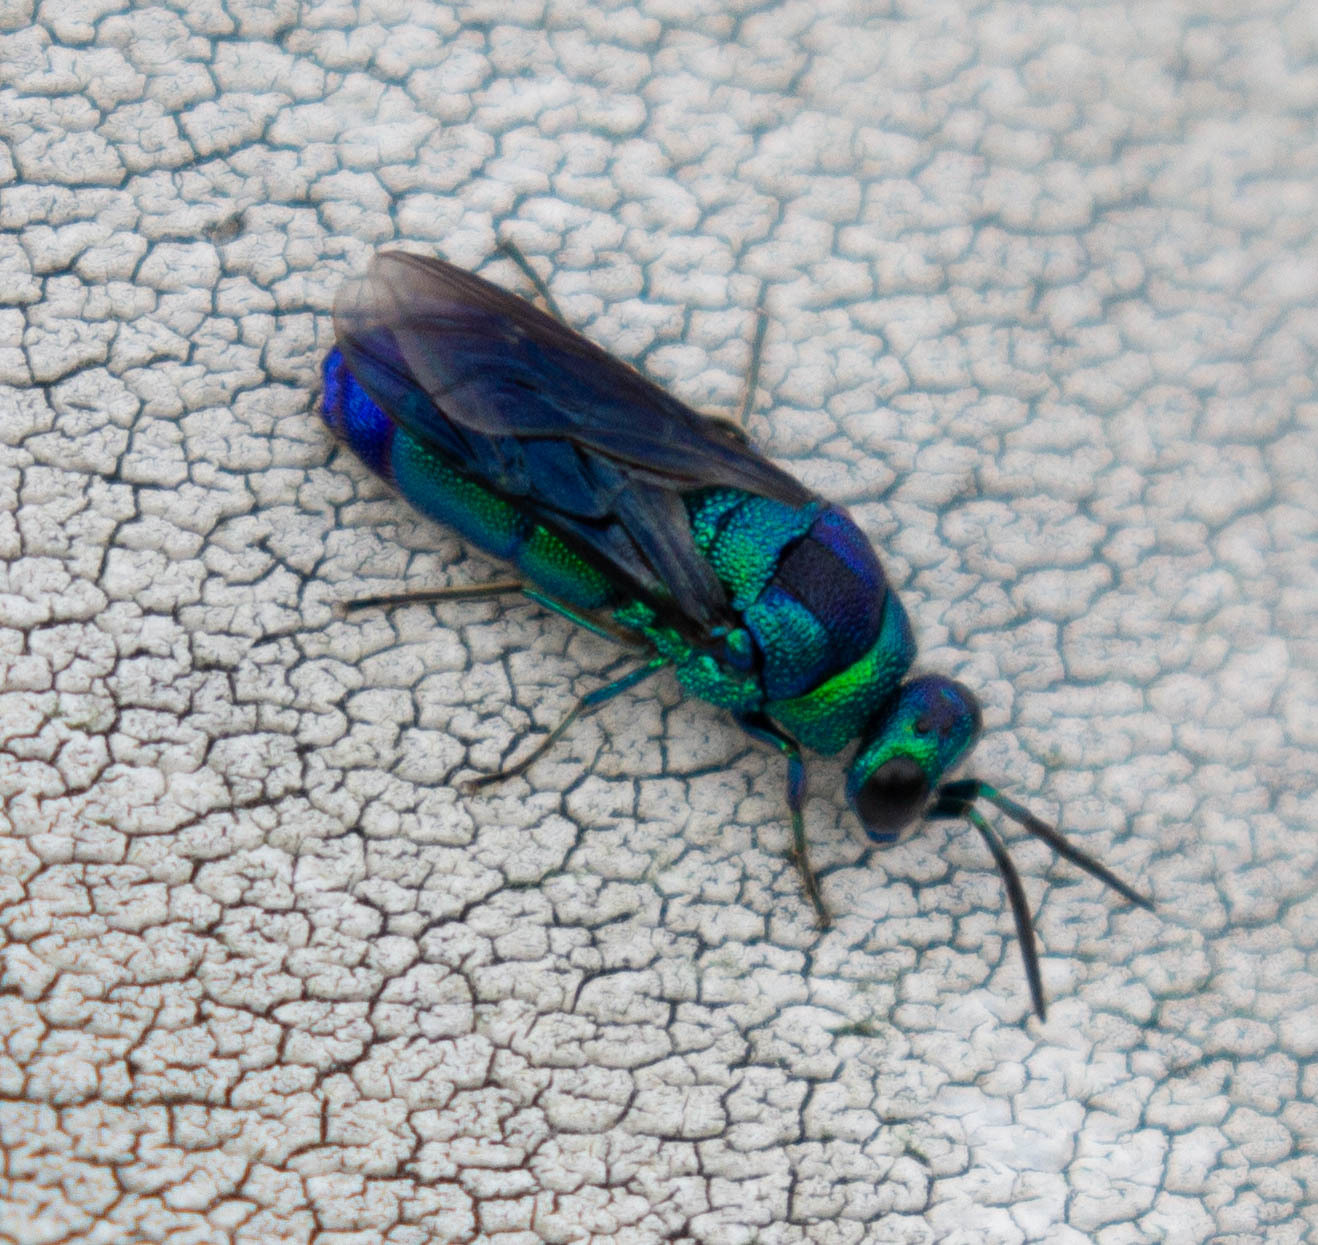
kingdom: Animalia
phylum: Arthropoda
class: Insecta
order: Hymenoptera
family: Chrysididae
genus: Chrysis
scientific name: Chrysis angolensis
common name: Cuckoo wasp
